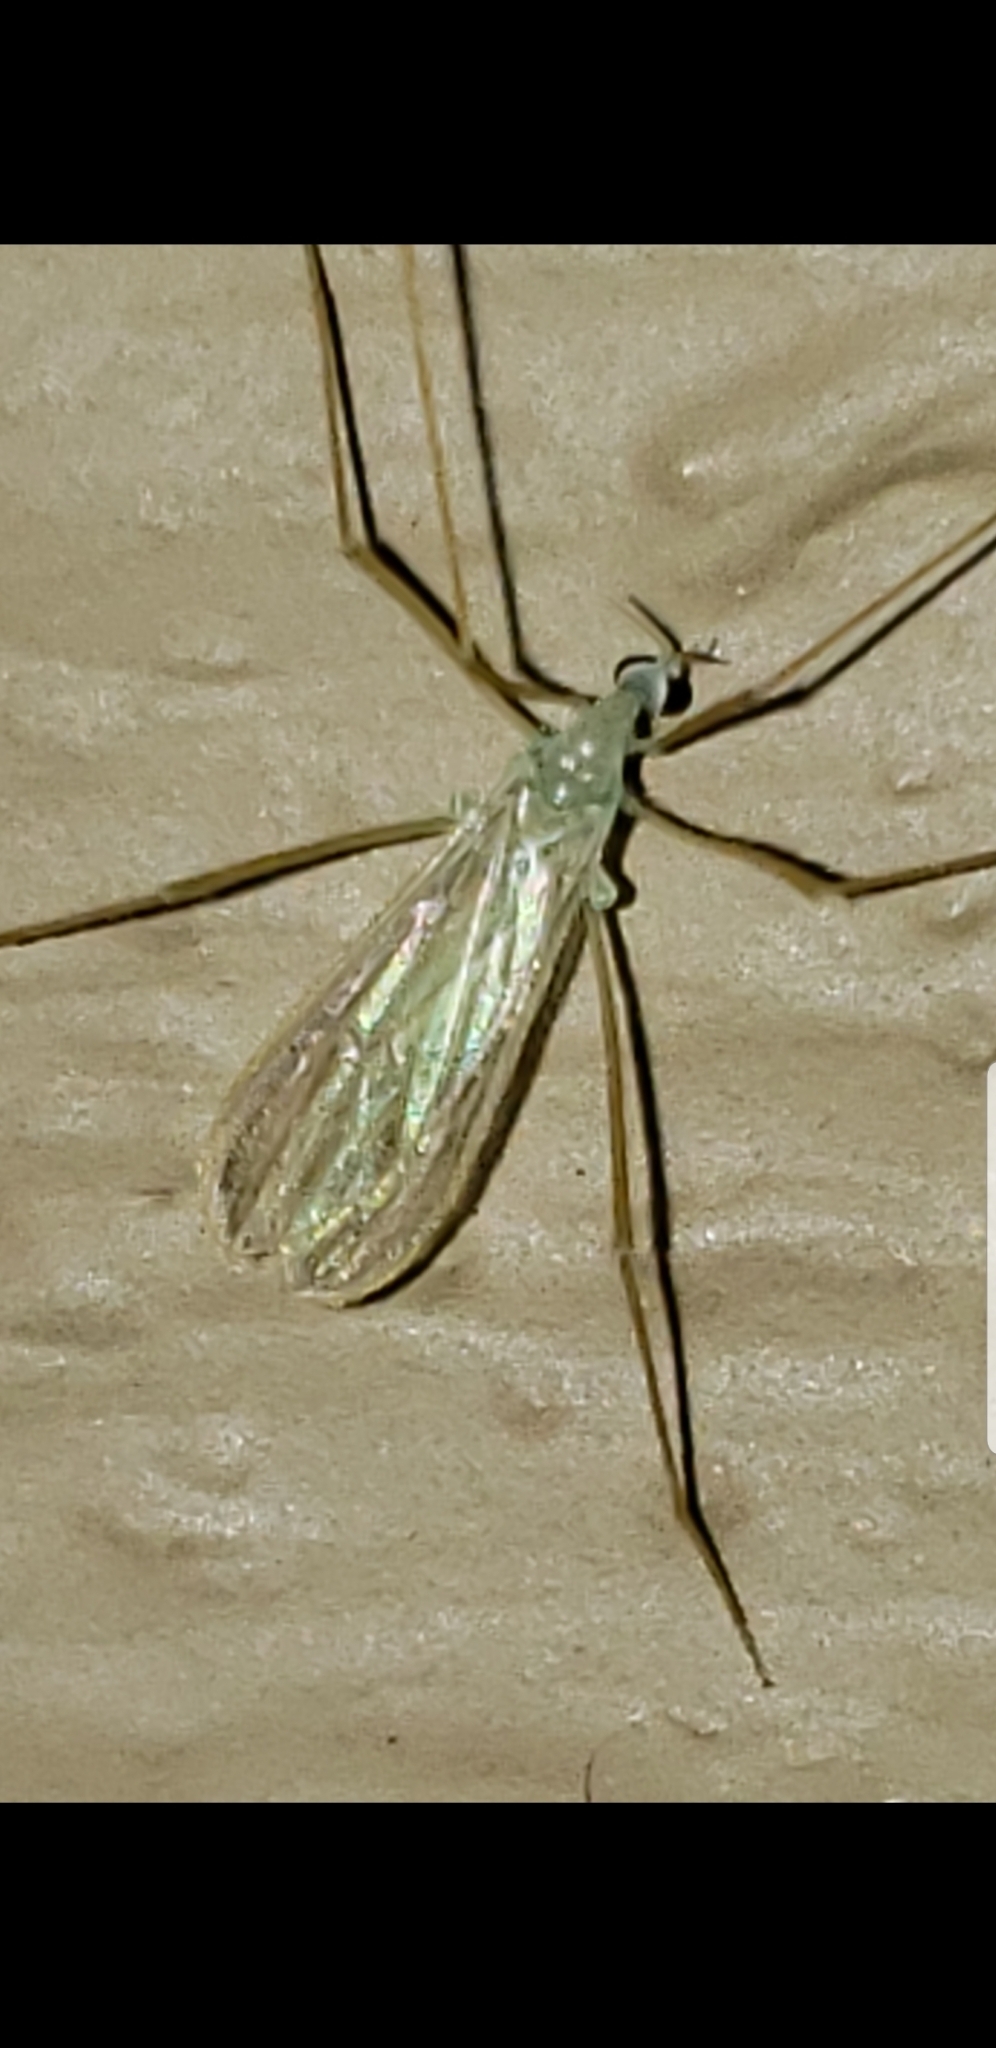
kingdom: Animalia
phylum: Arthropoda
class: Insecta
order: Diptera
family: Limoniidae
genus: Erioptera
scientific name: Erioptera
